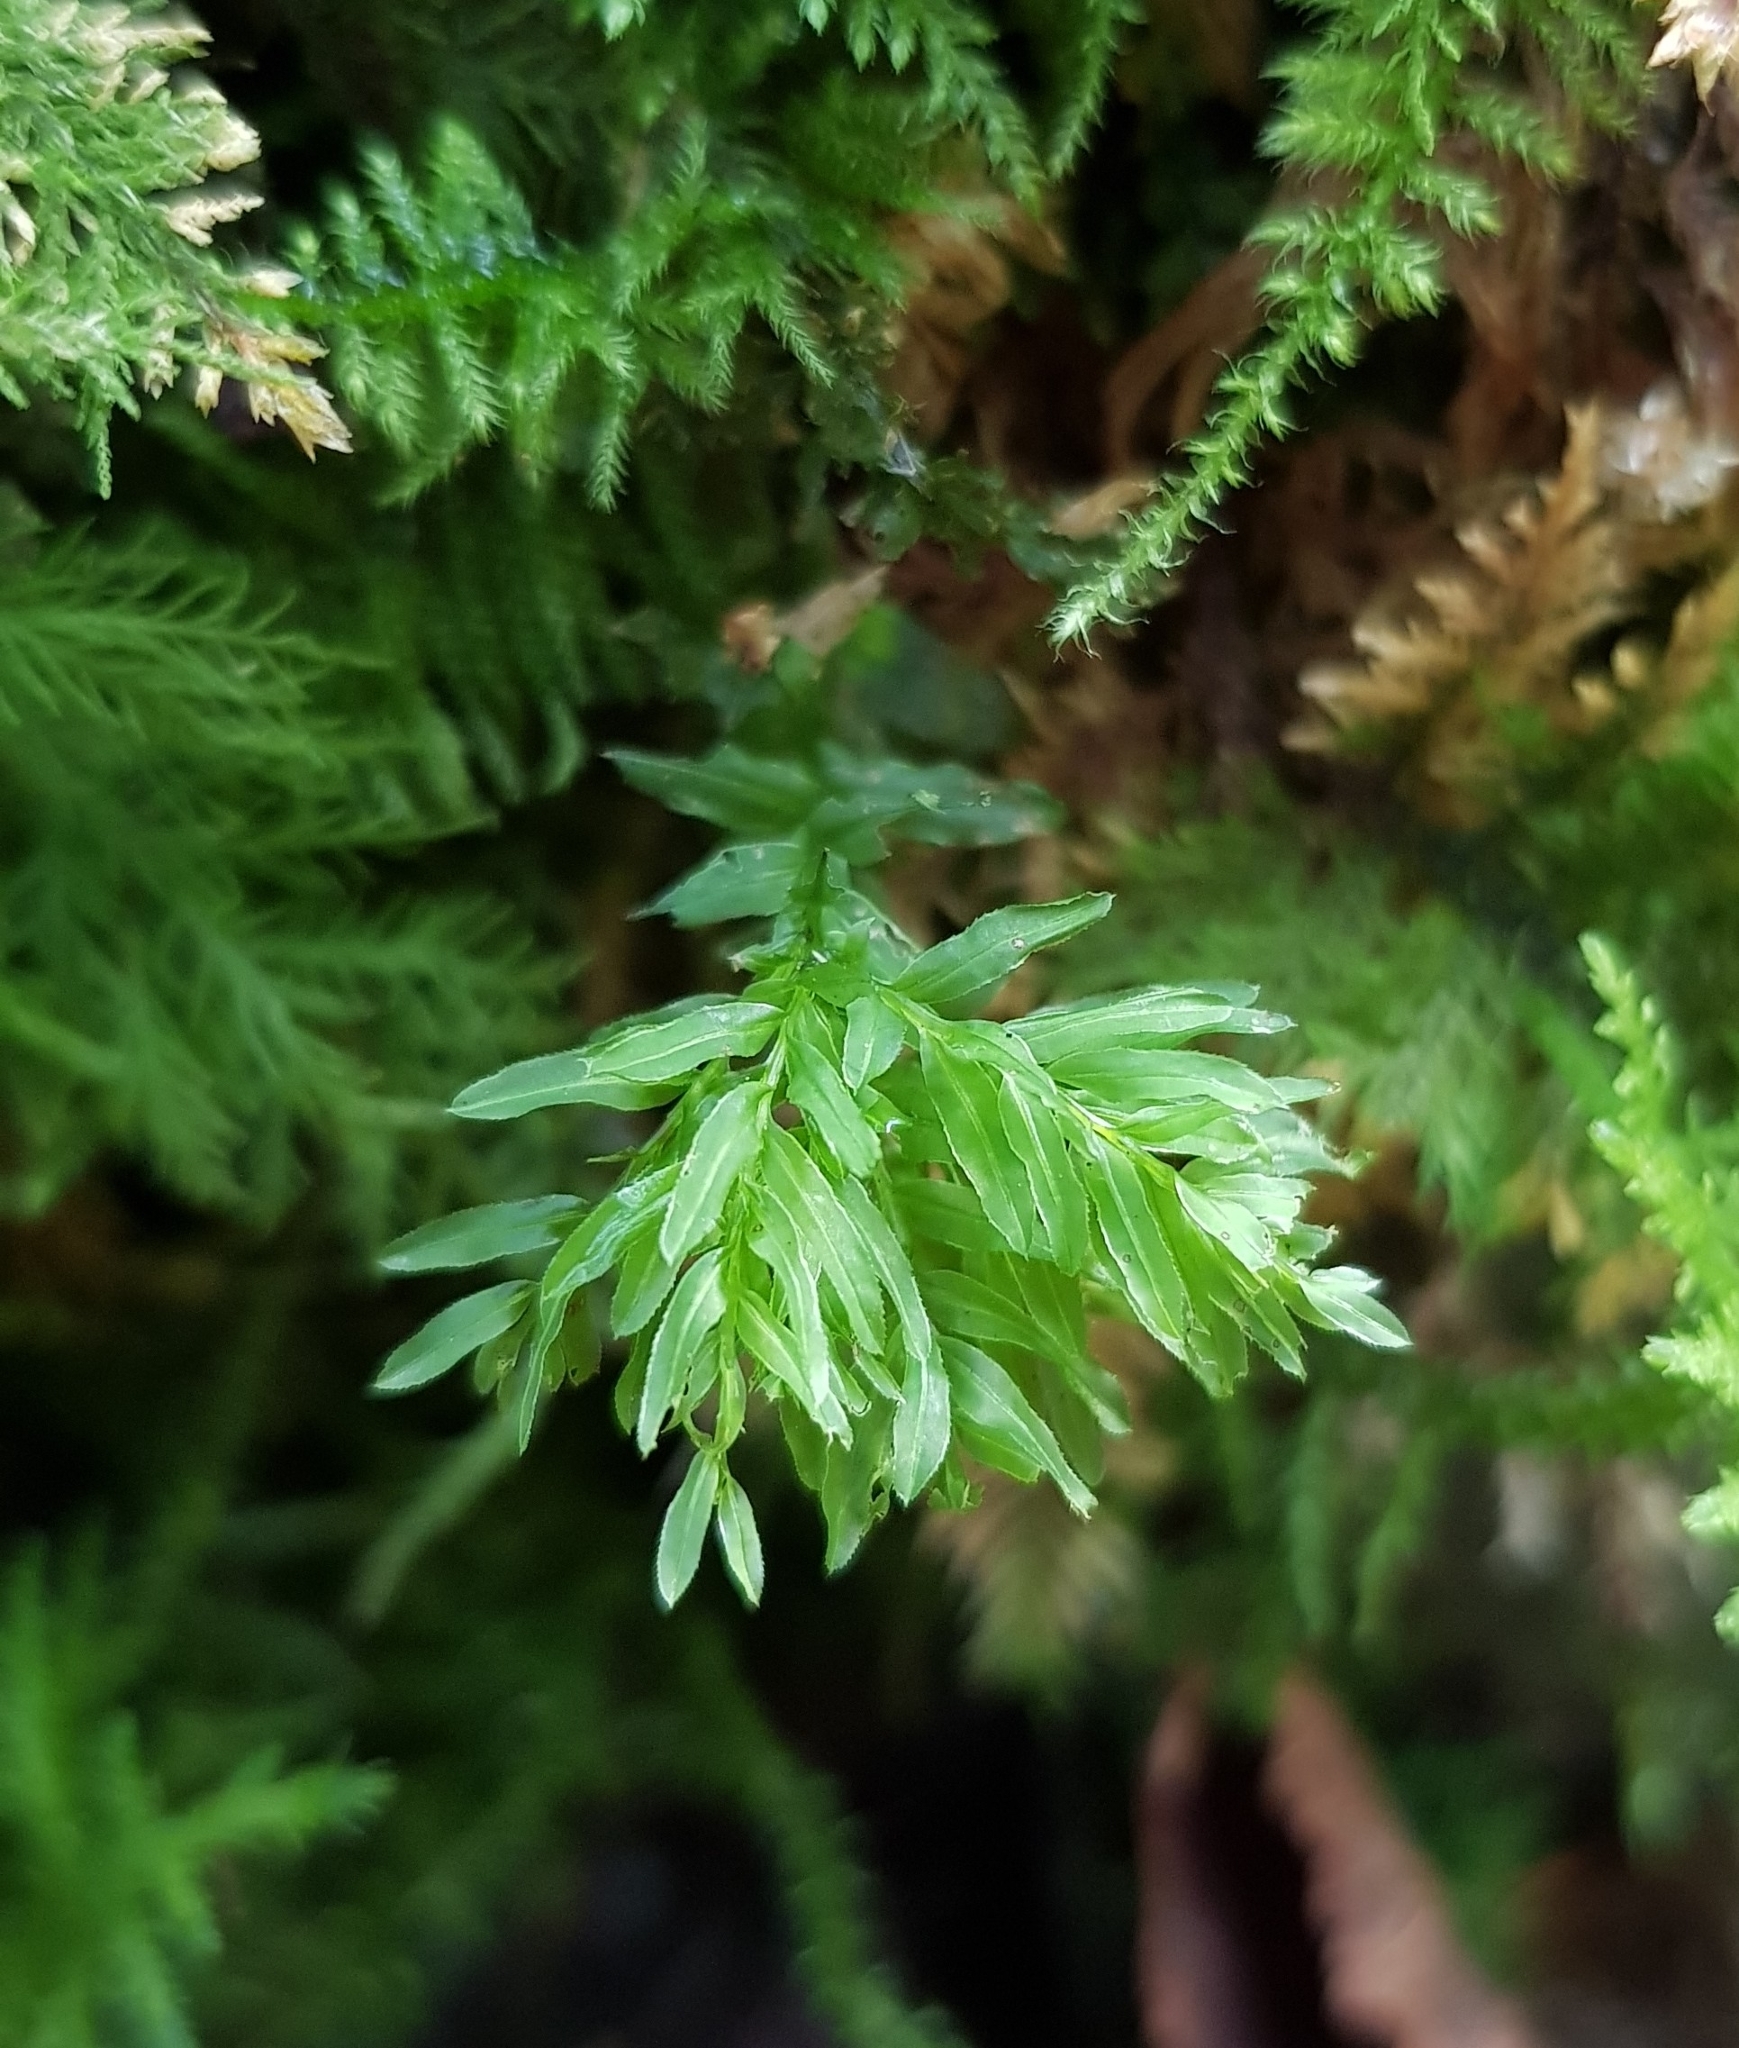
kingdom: Plantae
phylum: Bryophyta
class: Bryopsida
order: Bryales
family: Mniaceae
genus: Plagiomnium
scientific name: Plagiomnium undulatum
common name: Hart's-tongue thyme-moss
